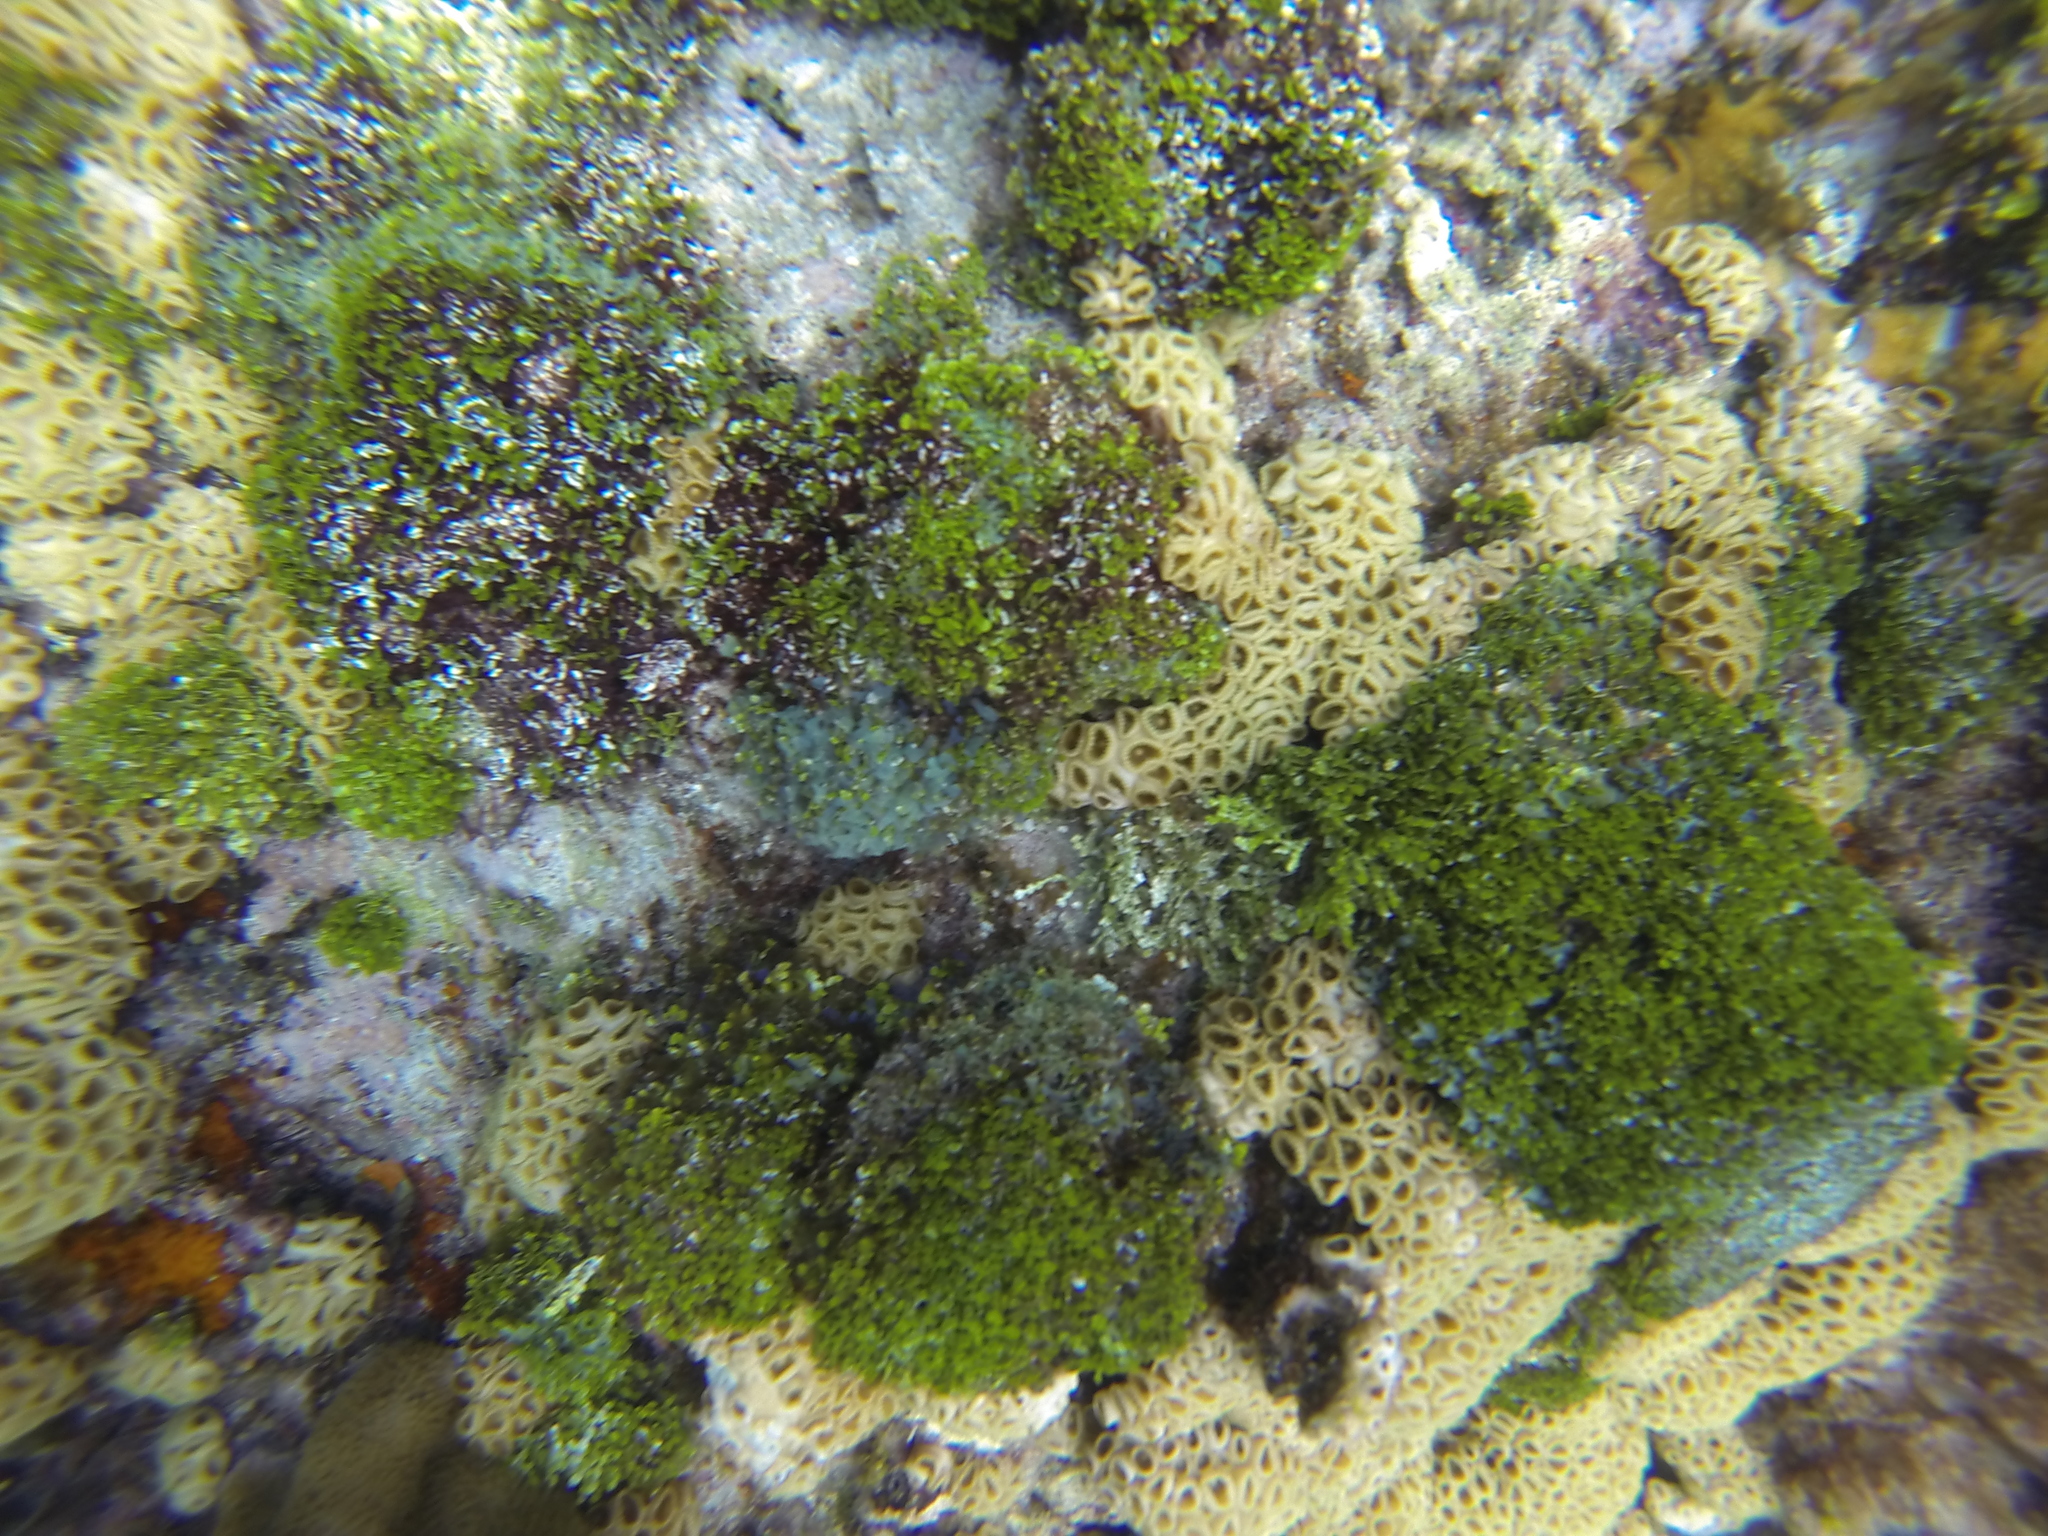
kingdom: Animalia
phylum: Cnidaria
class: Anthozoa
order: Zoantharia
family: Sphenopidae
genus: Palythoa
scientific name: Palythoa caribaeorum
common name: Encrusting colonial anemone
